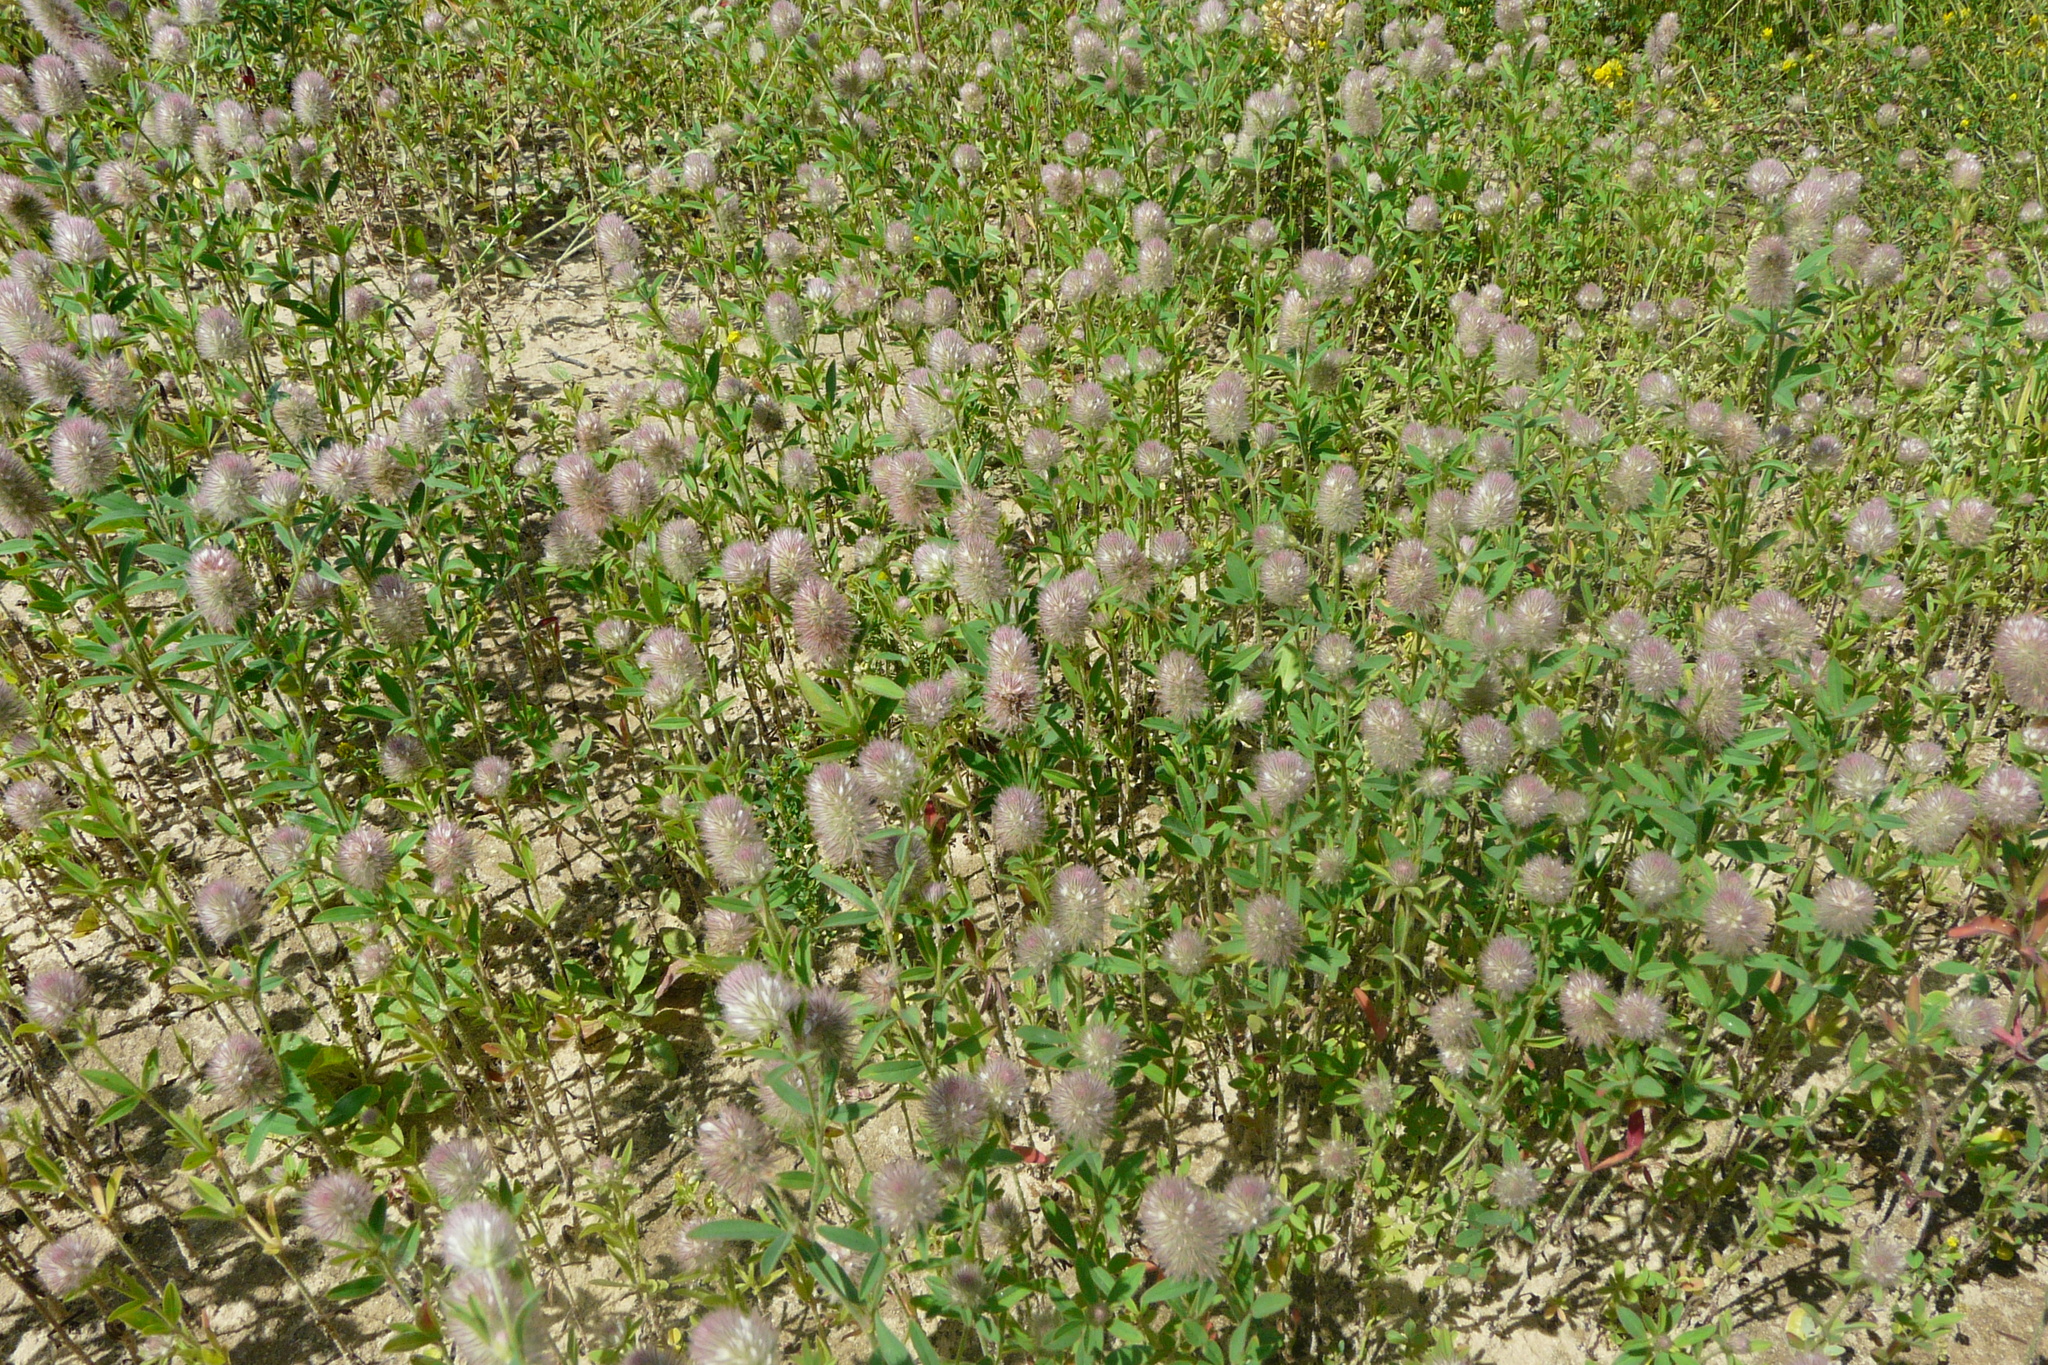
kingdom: Plantae
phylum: Tracheophyta
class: Magnoliopsida
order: Fabales
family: Fabaceae
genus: Trifolium
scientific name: Trifolium arvense
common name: Hare's-foot clover
